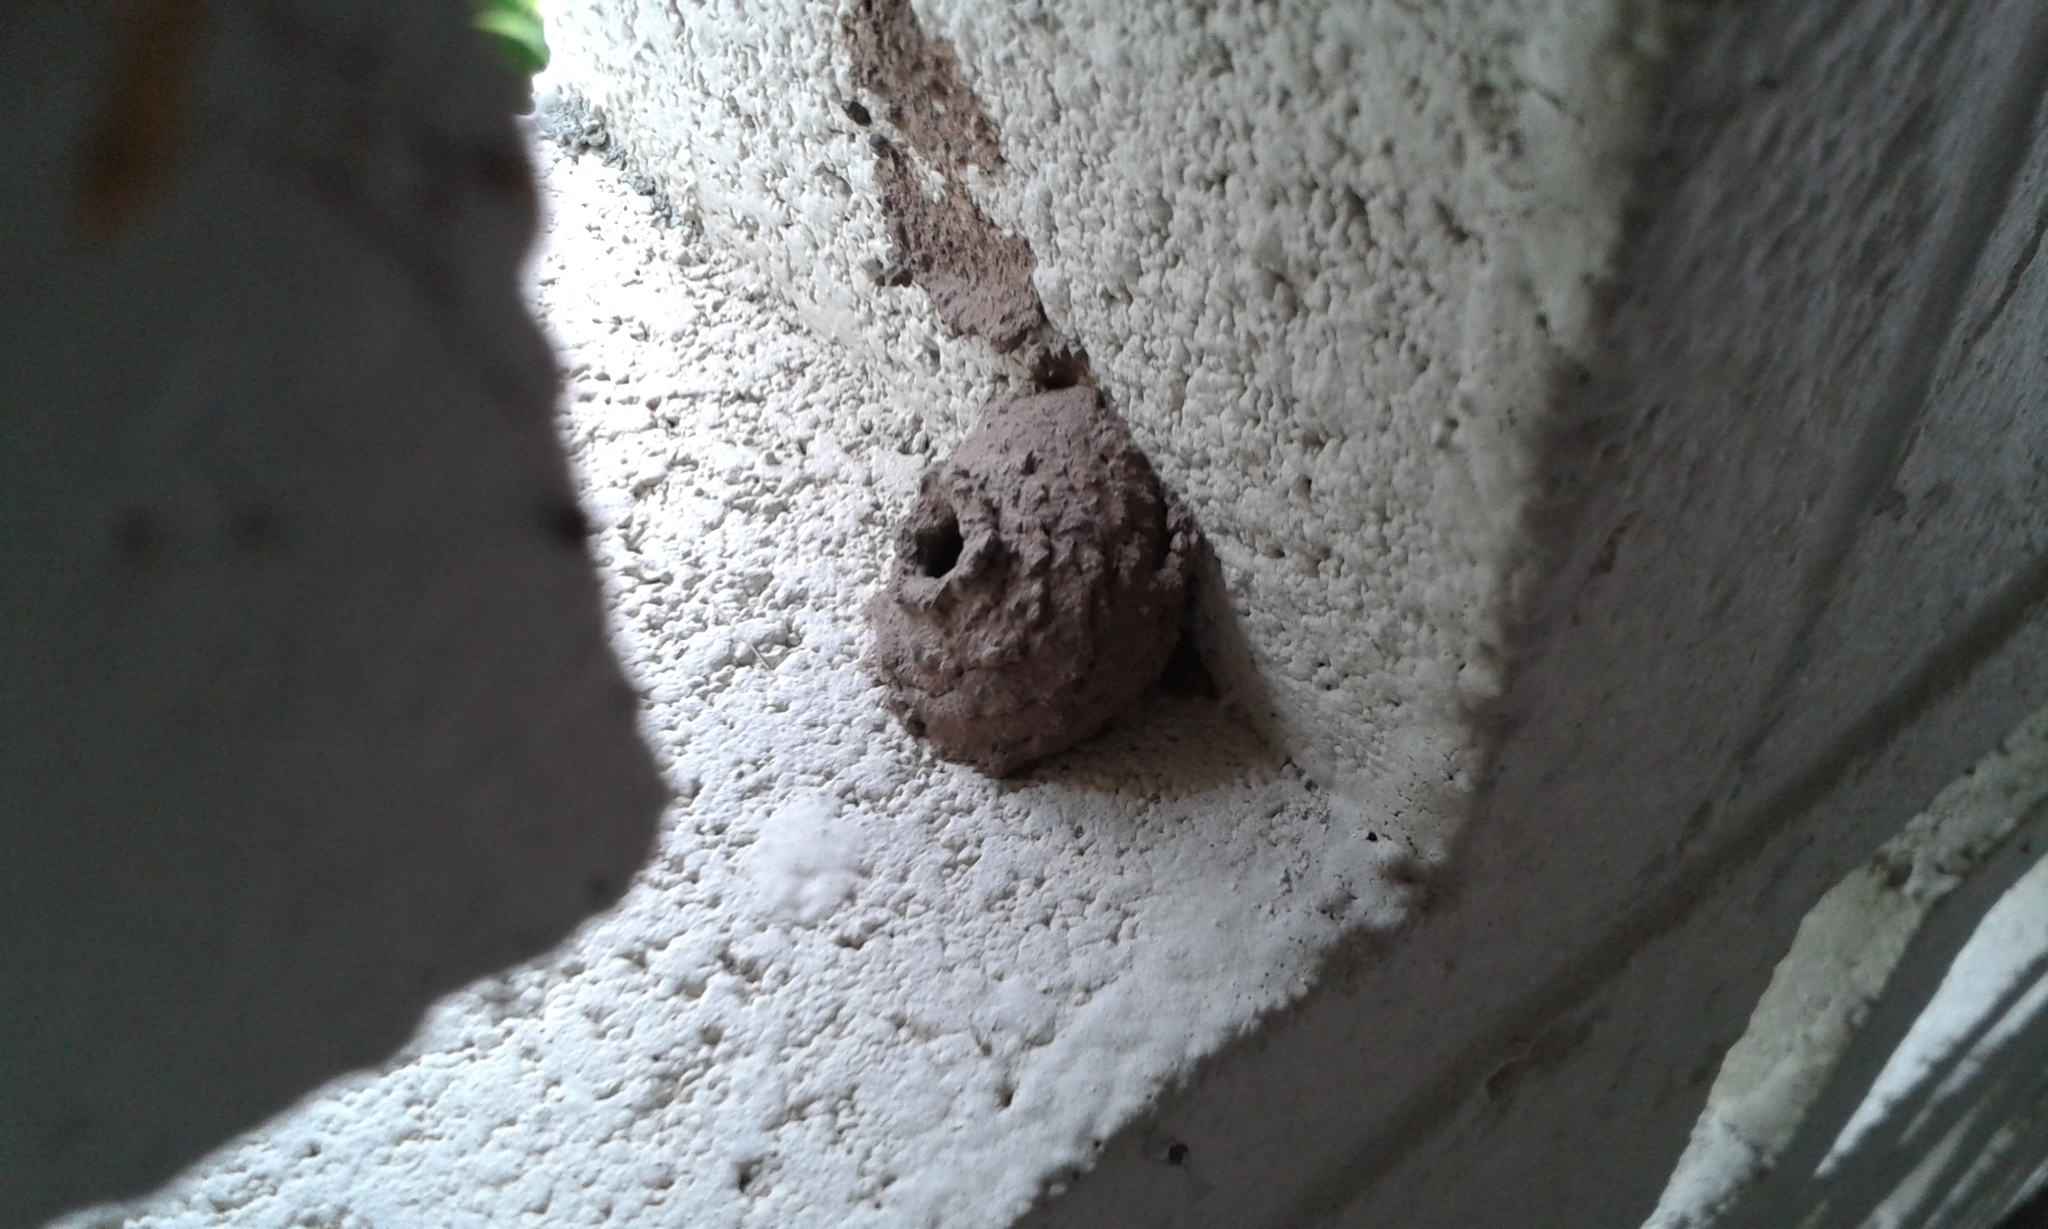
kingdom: Animalia
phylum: Arthropoda
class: Insecta
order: Hymenoptera
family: Eumenidae
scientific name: Eumenidae
